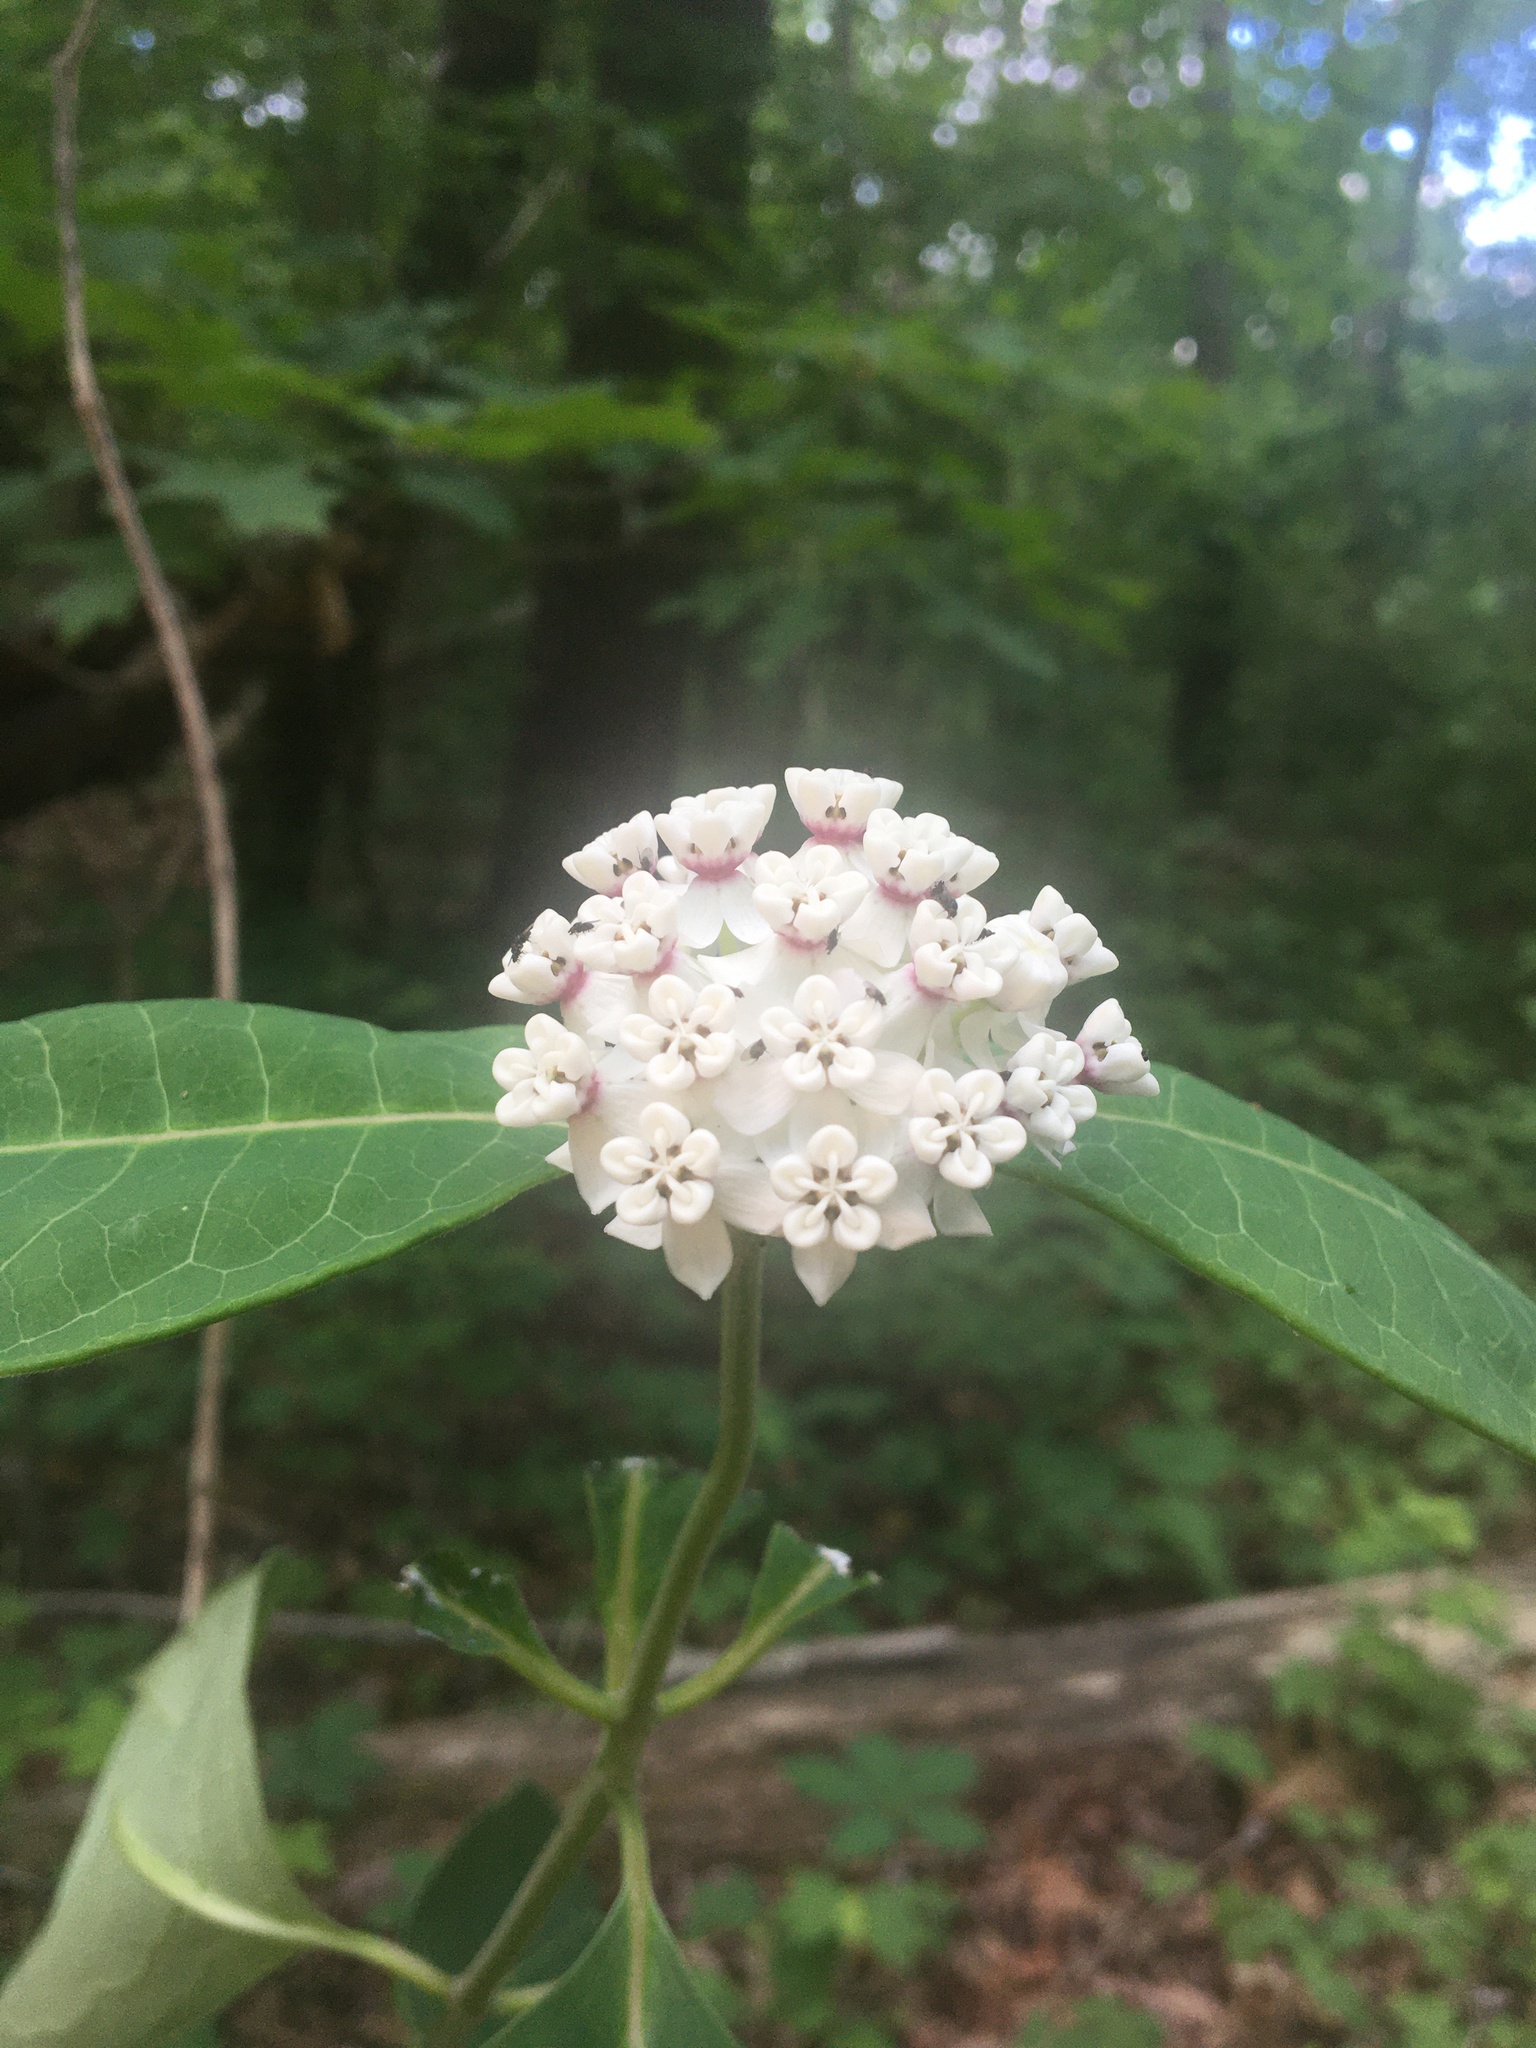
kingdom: Plantae
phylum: Tracheophyta
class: Magnoliopsida
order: Gentianales
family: Apocynaceae
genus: Asclepias
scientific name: Asclepias variegata
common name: Variegated milkweed
